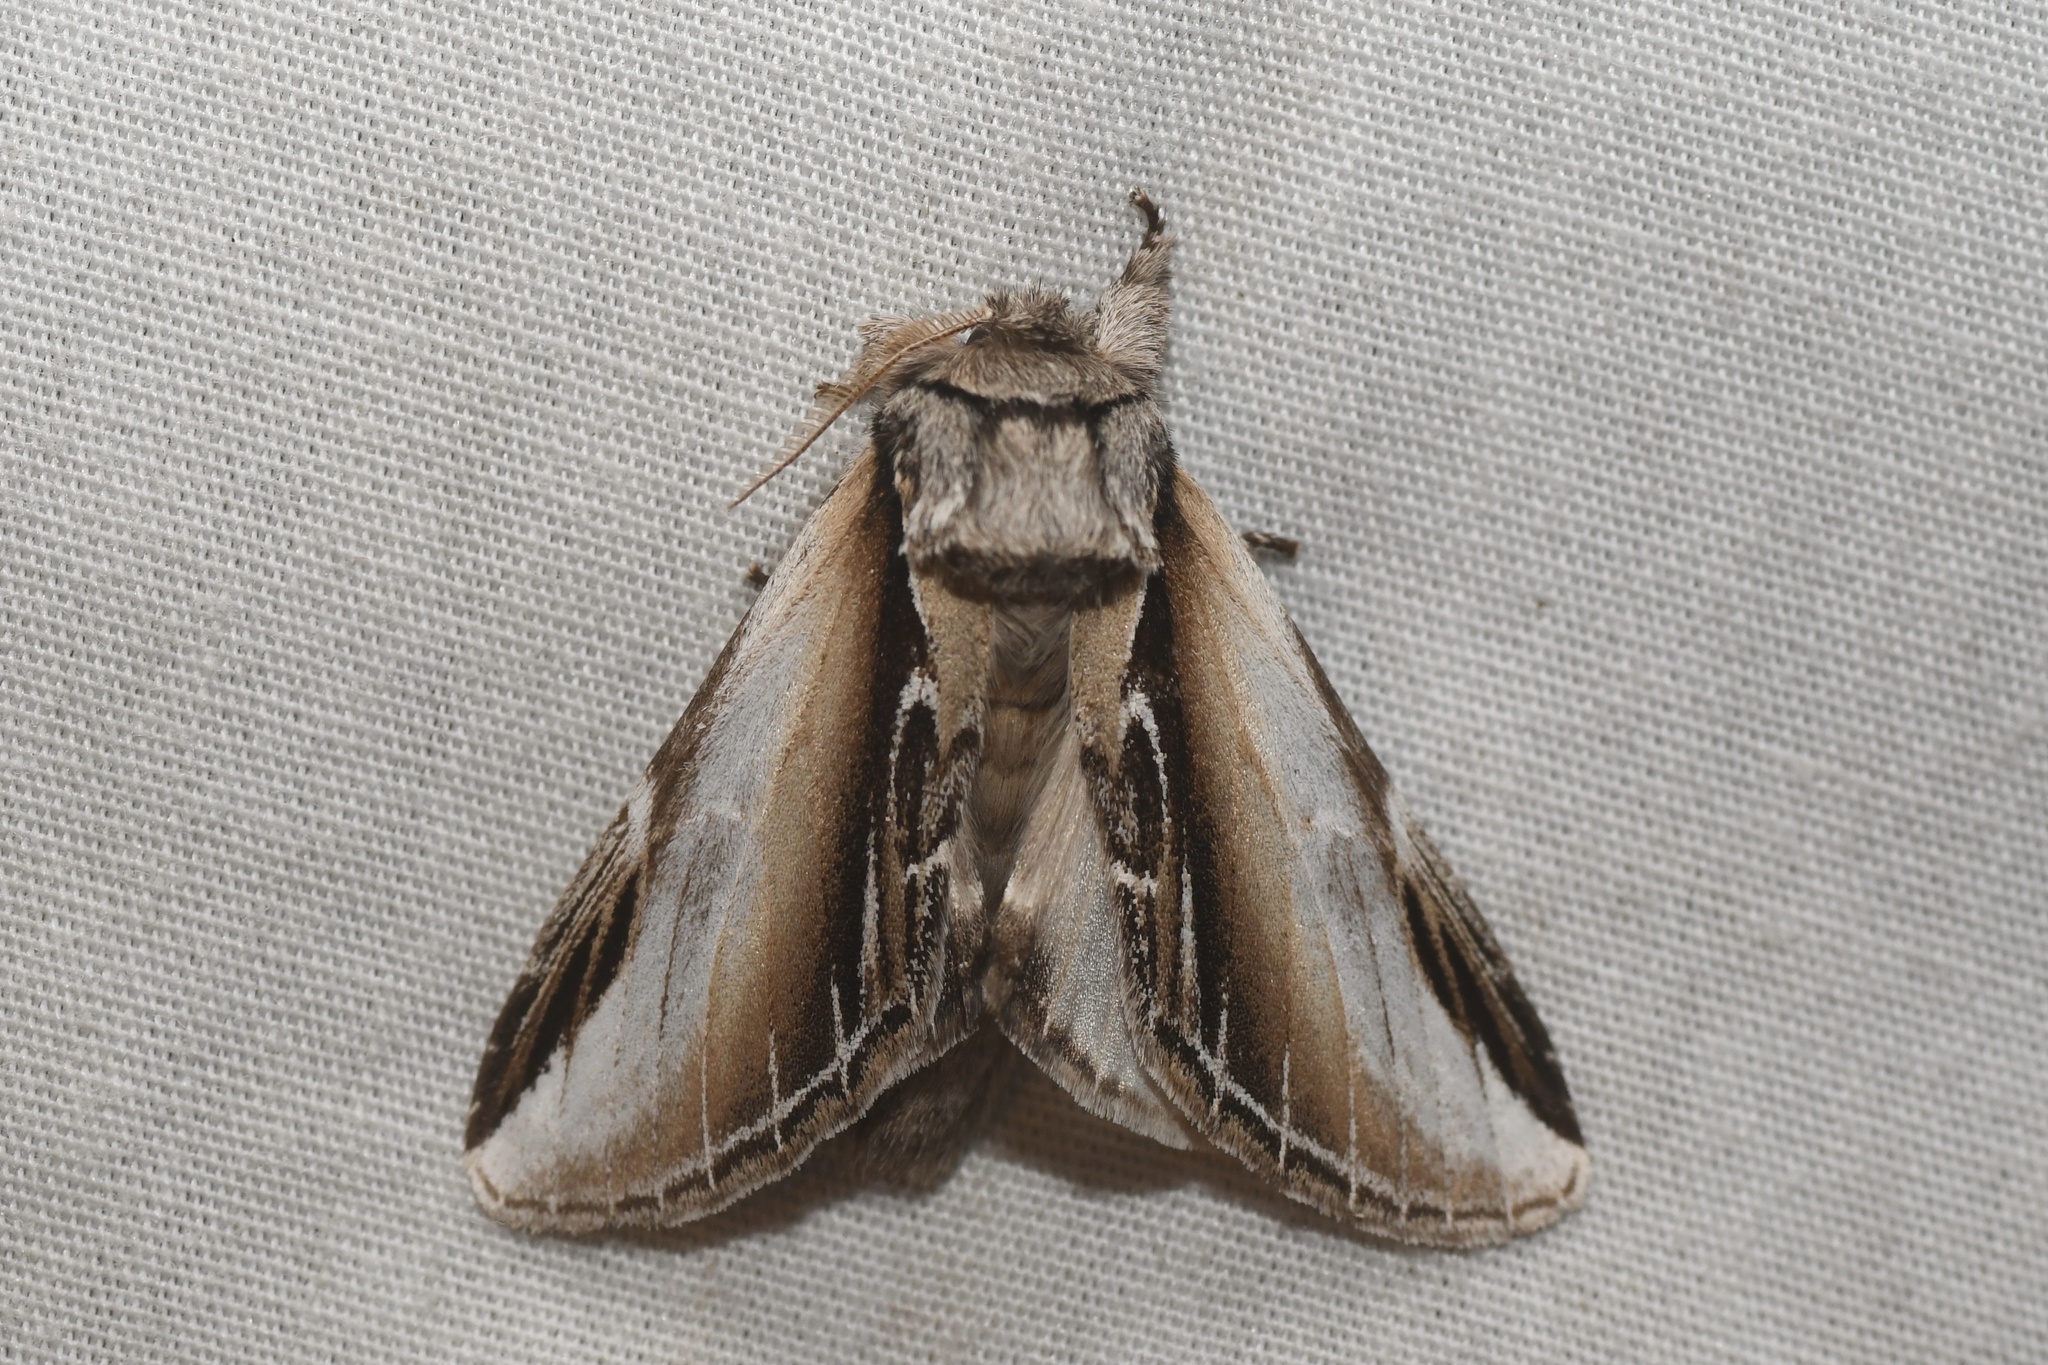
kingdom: Animalia
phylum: Arthropoda
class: Insecta
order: Lepidoptera
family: Notodontidae
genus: Pheosia
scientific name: Pheosia rimosa
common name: Black-rimmed prominent
